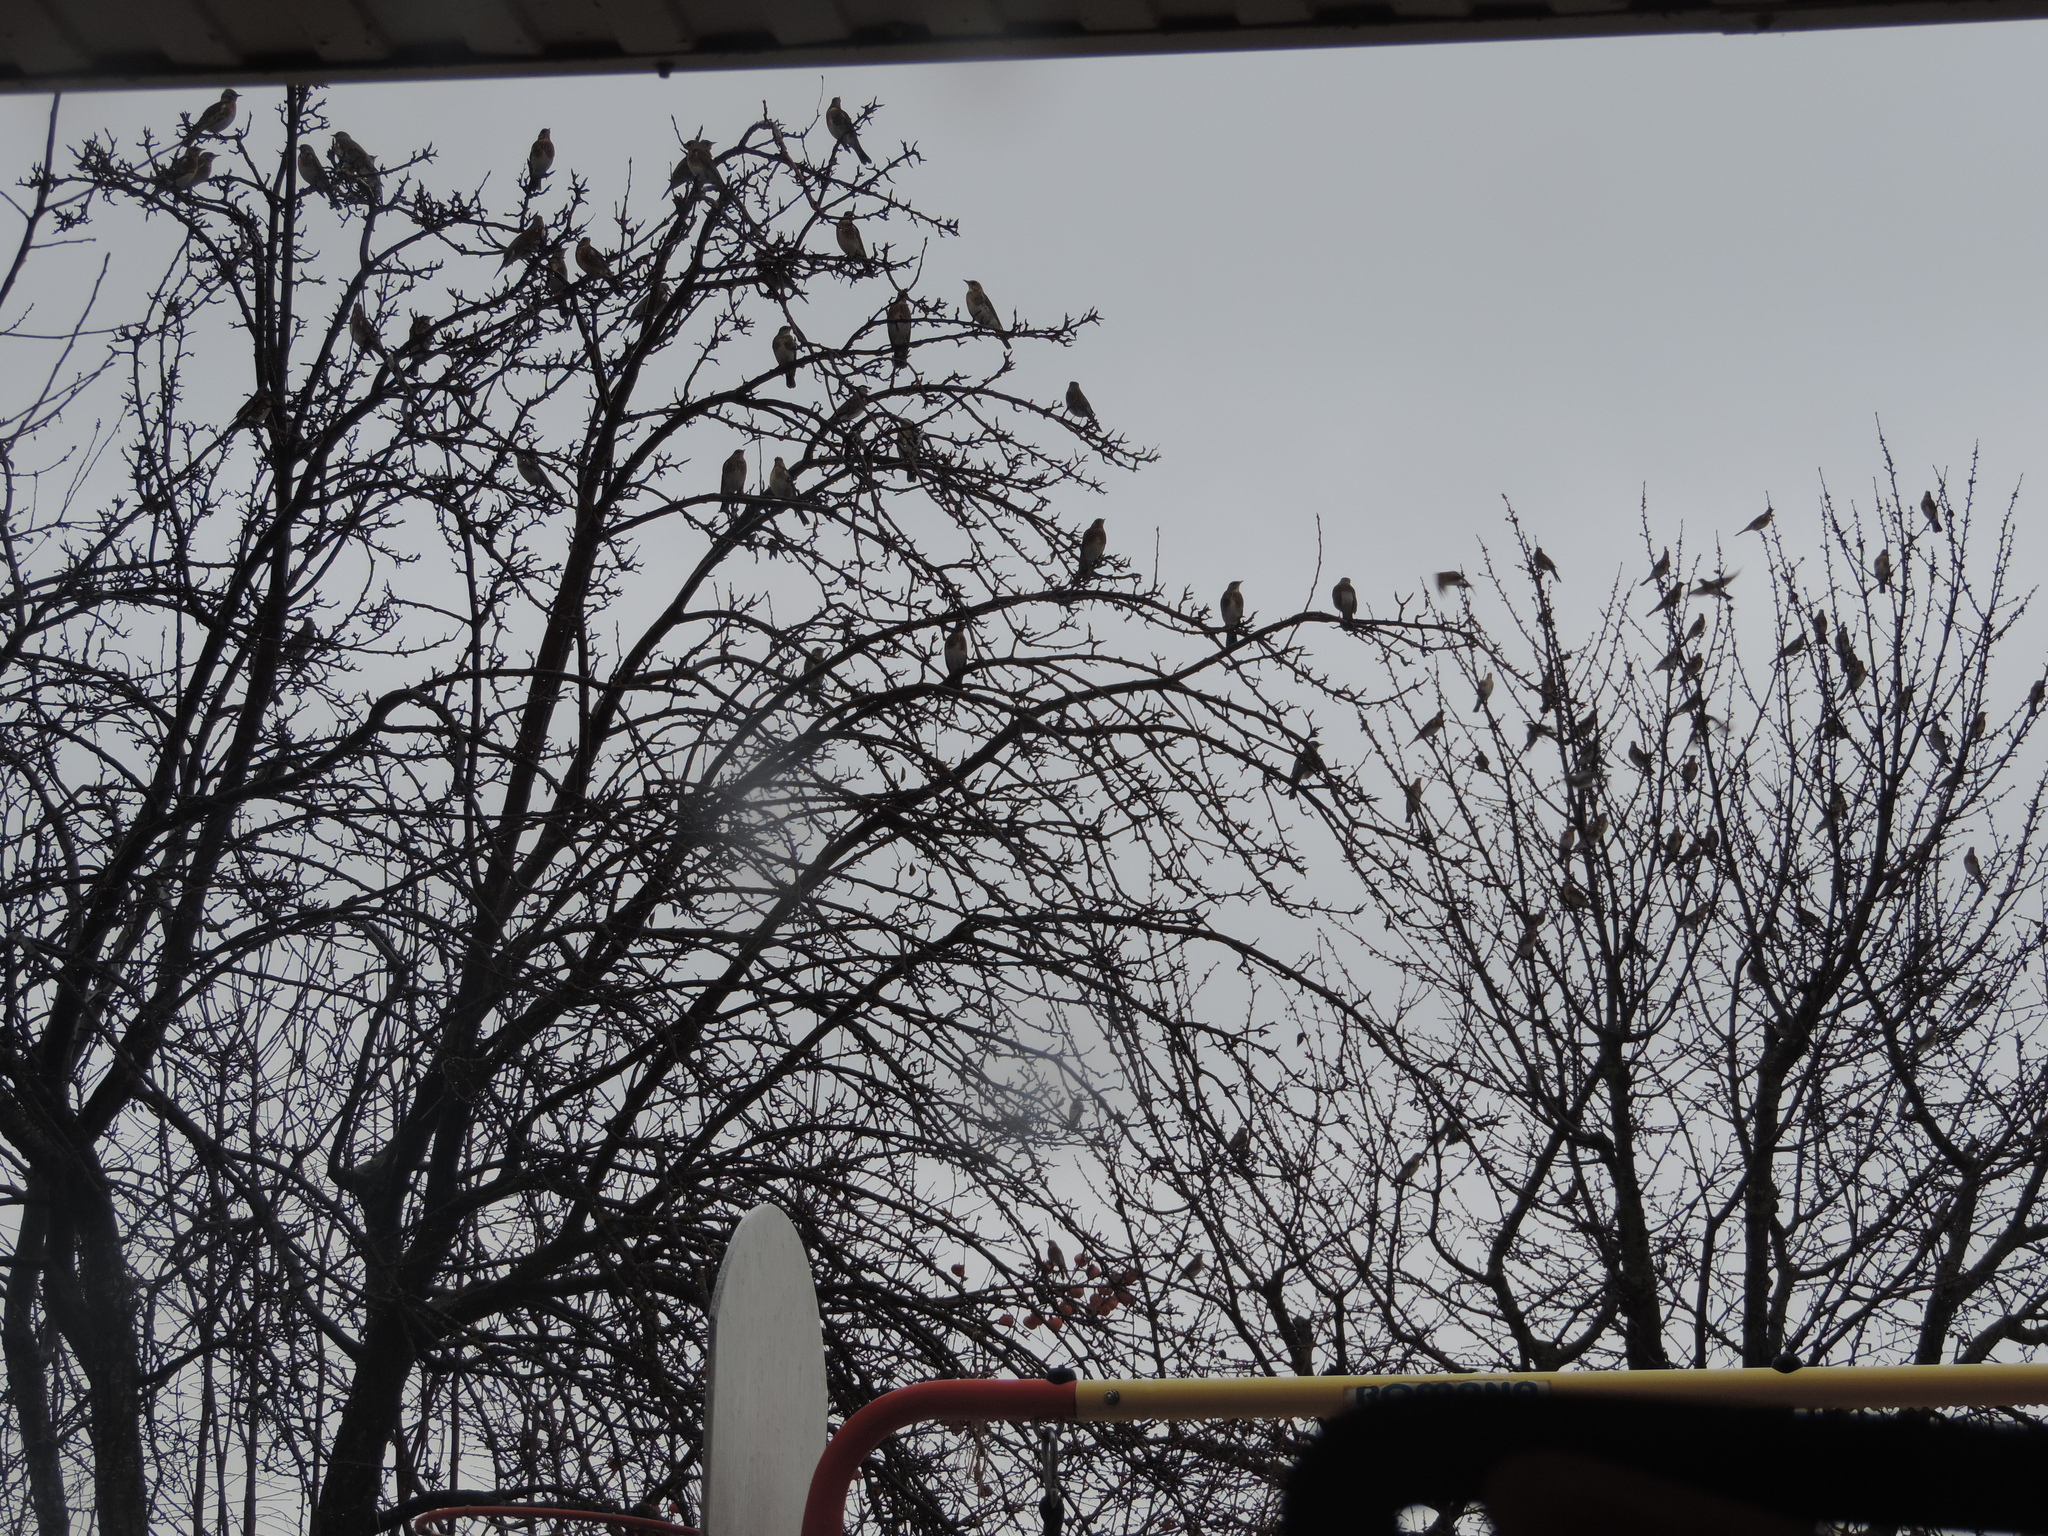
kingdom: Animalia
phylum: Chordata
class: Aves
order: Passeriformes
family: Turdidae
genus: Turdus
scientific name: Turdus pilaris
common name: Fieldfare
